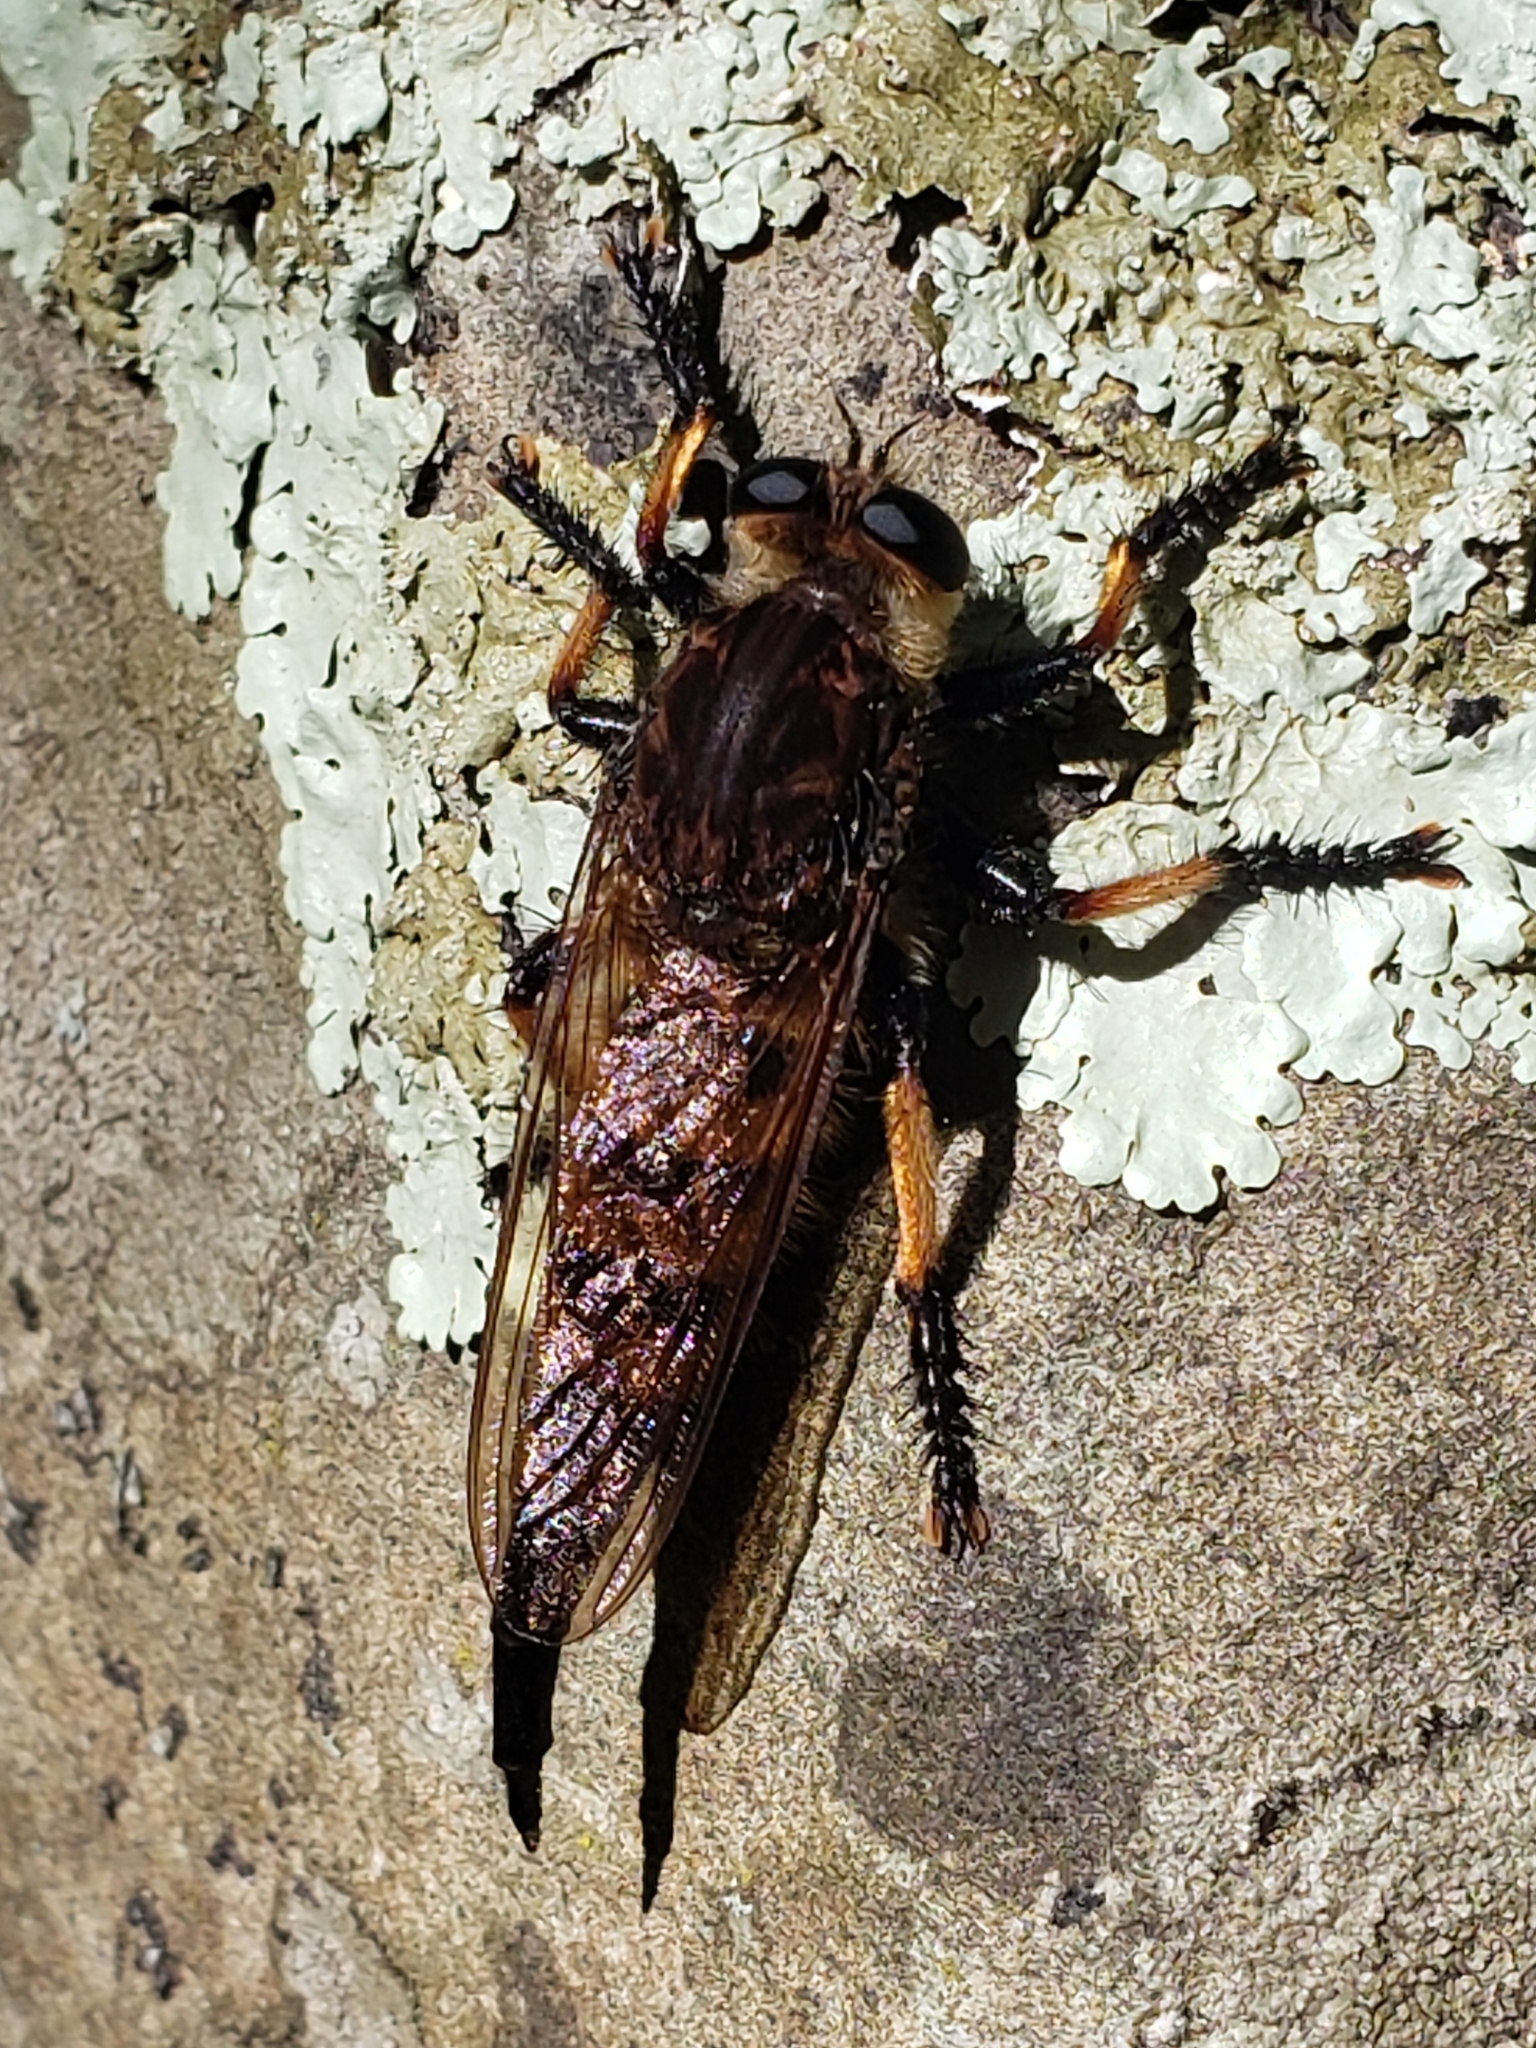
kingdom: Animalia
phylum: Arthropoda
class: Insecta
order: Diptera
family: Asilidae
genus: Promachus
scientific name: Promachus rufipes
